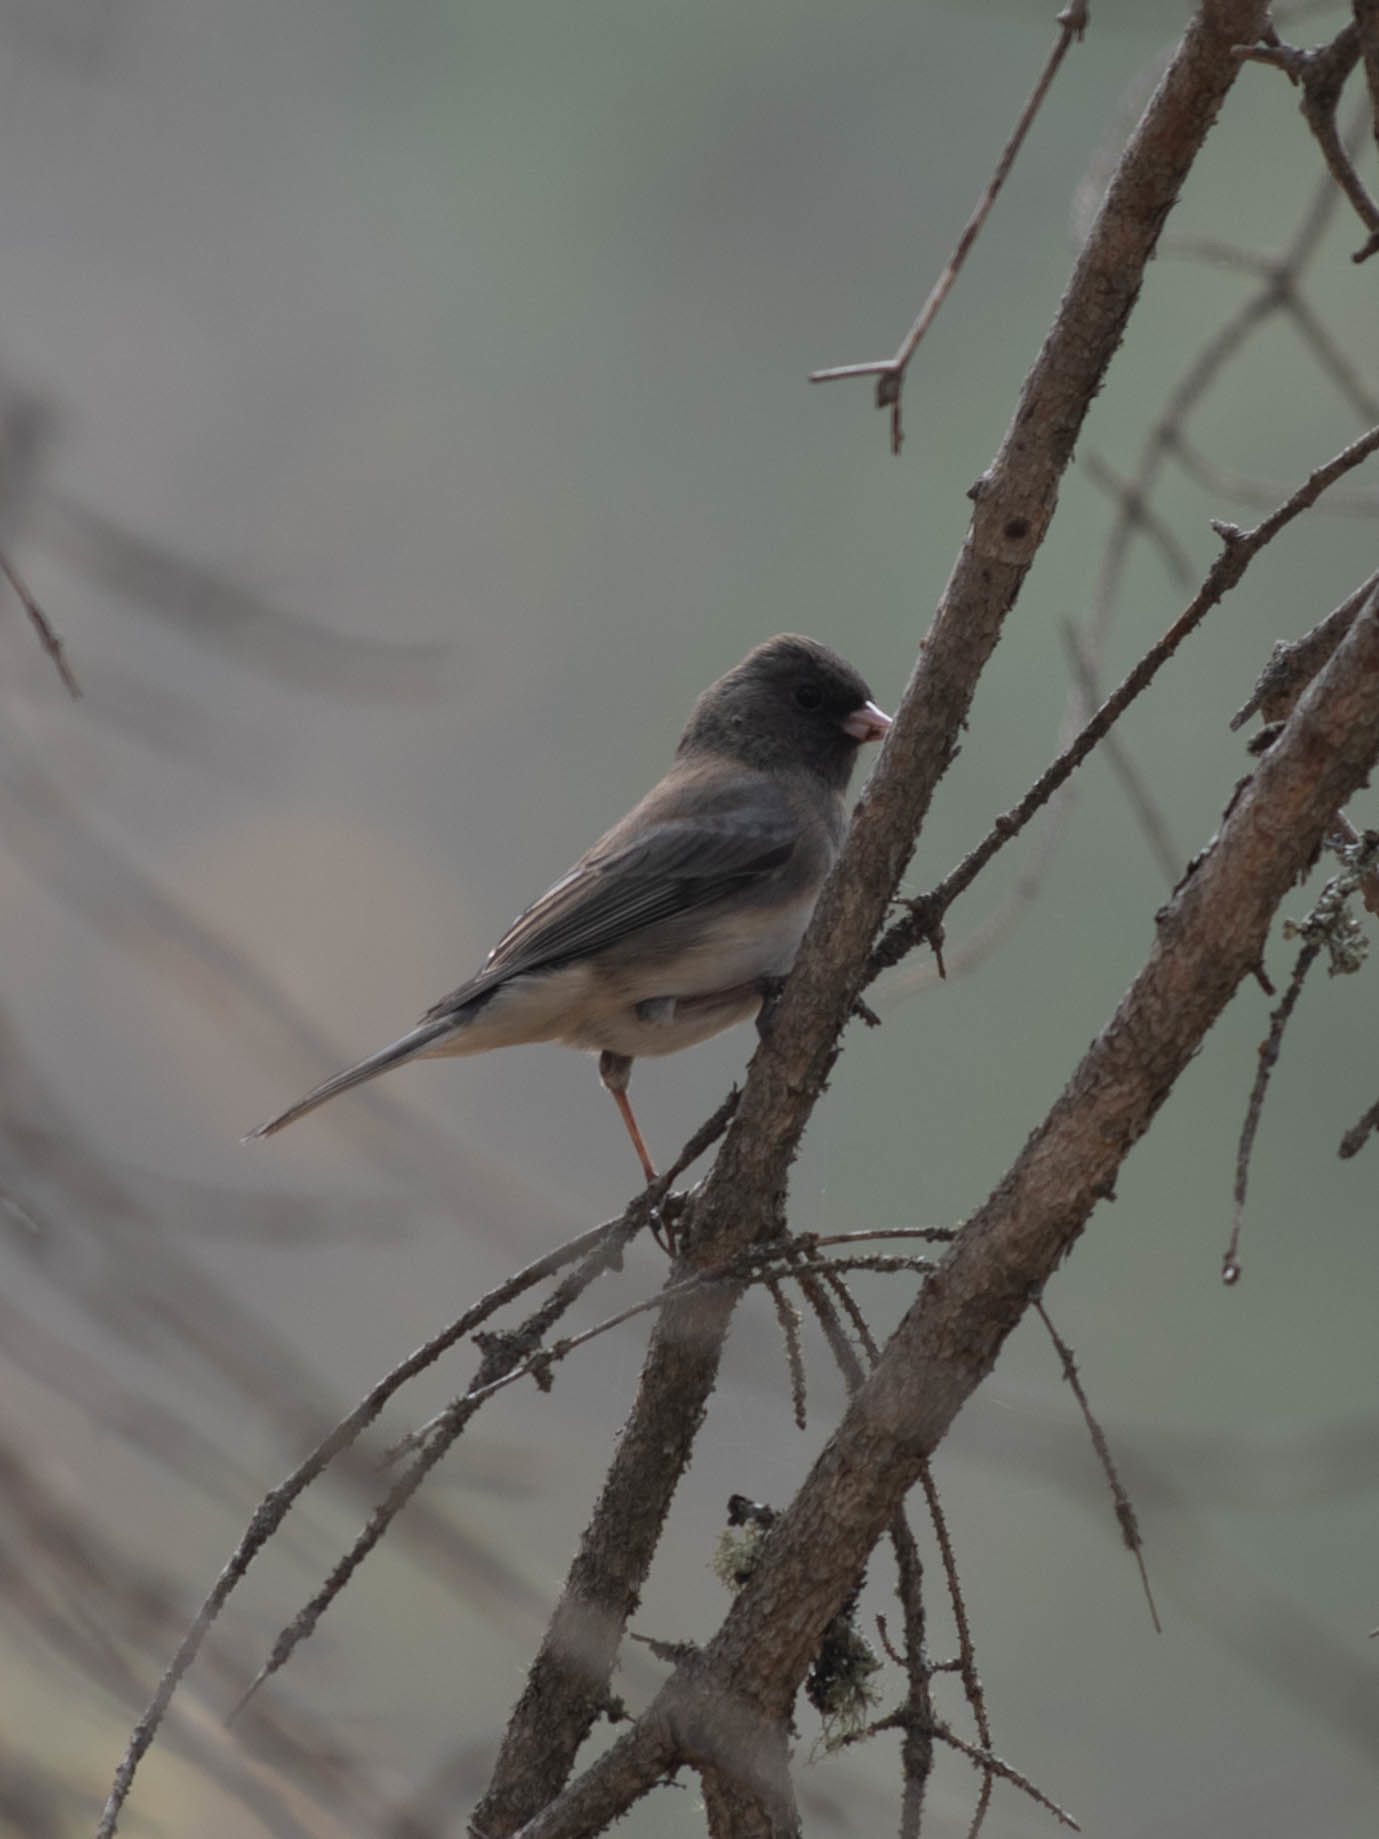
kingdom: Animalia
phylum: Chordata
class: Aves
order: Passeriformes
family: Passerellidae
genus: Junco
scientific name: Junco hyemalis
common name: Dark-eyed junco
